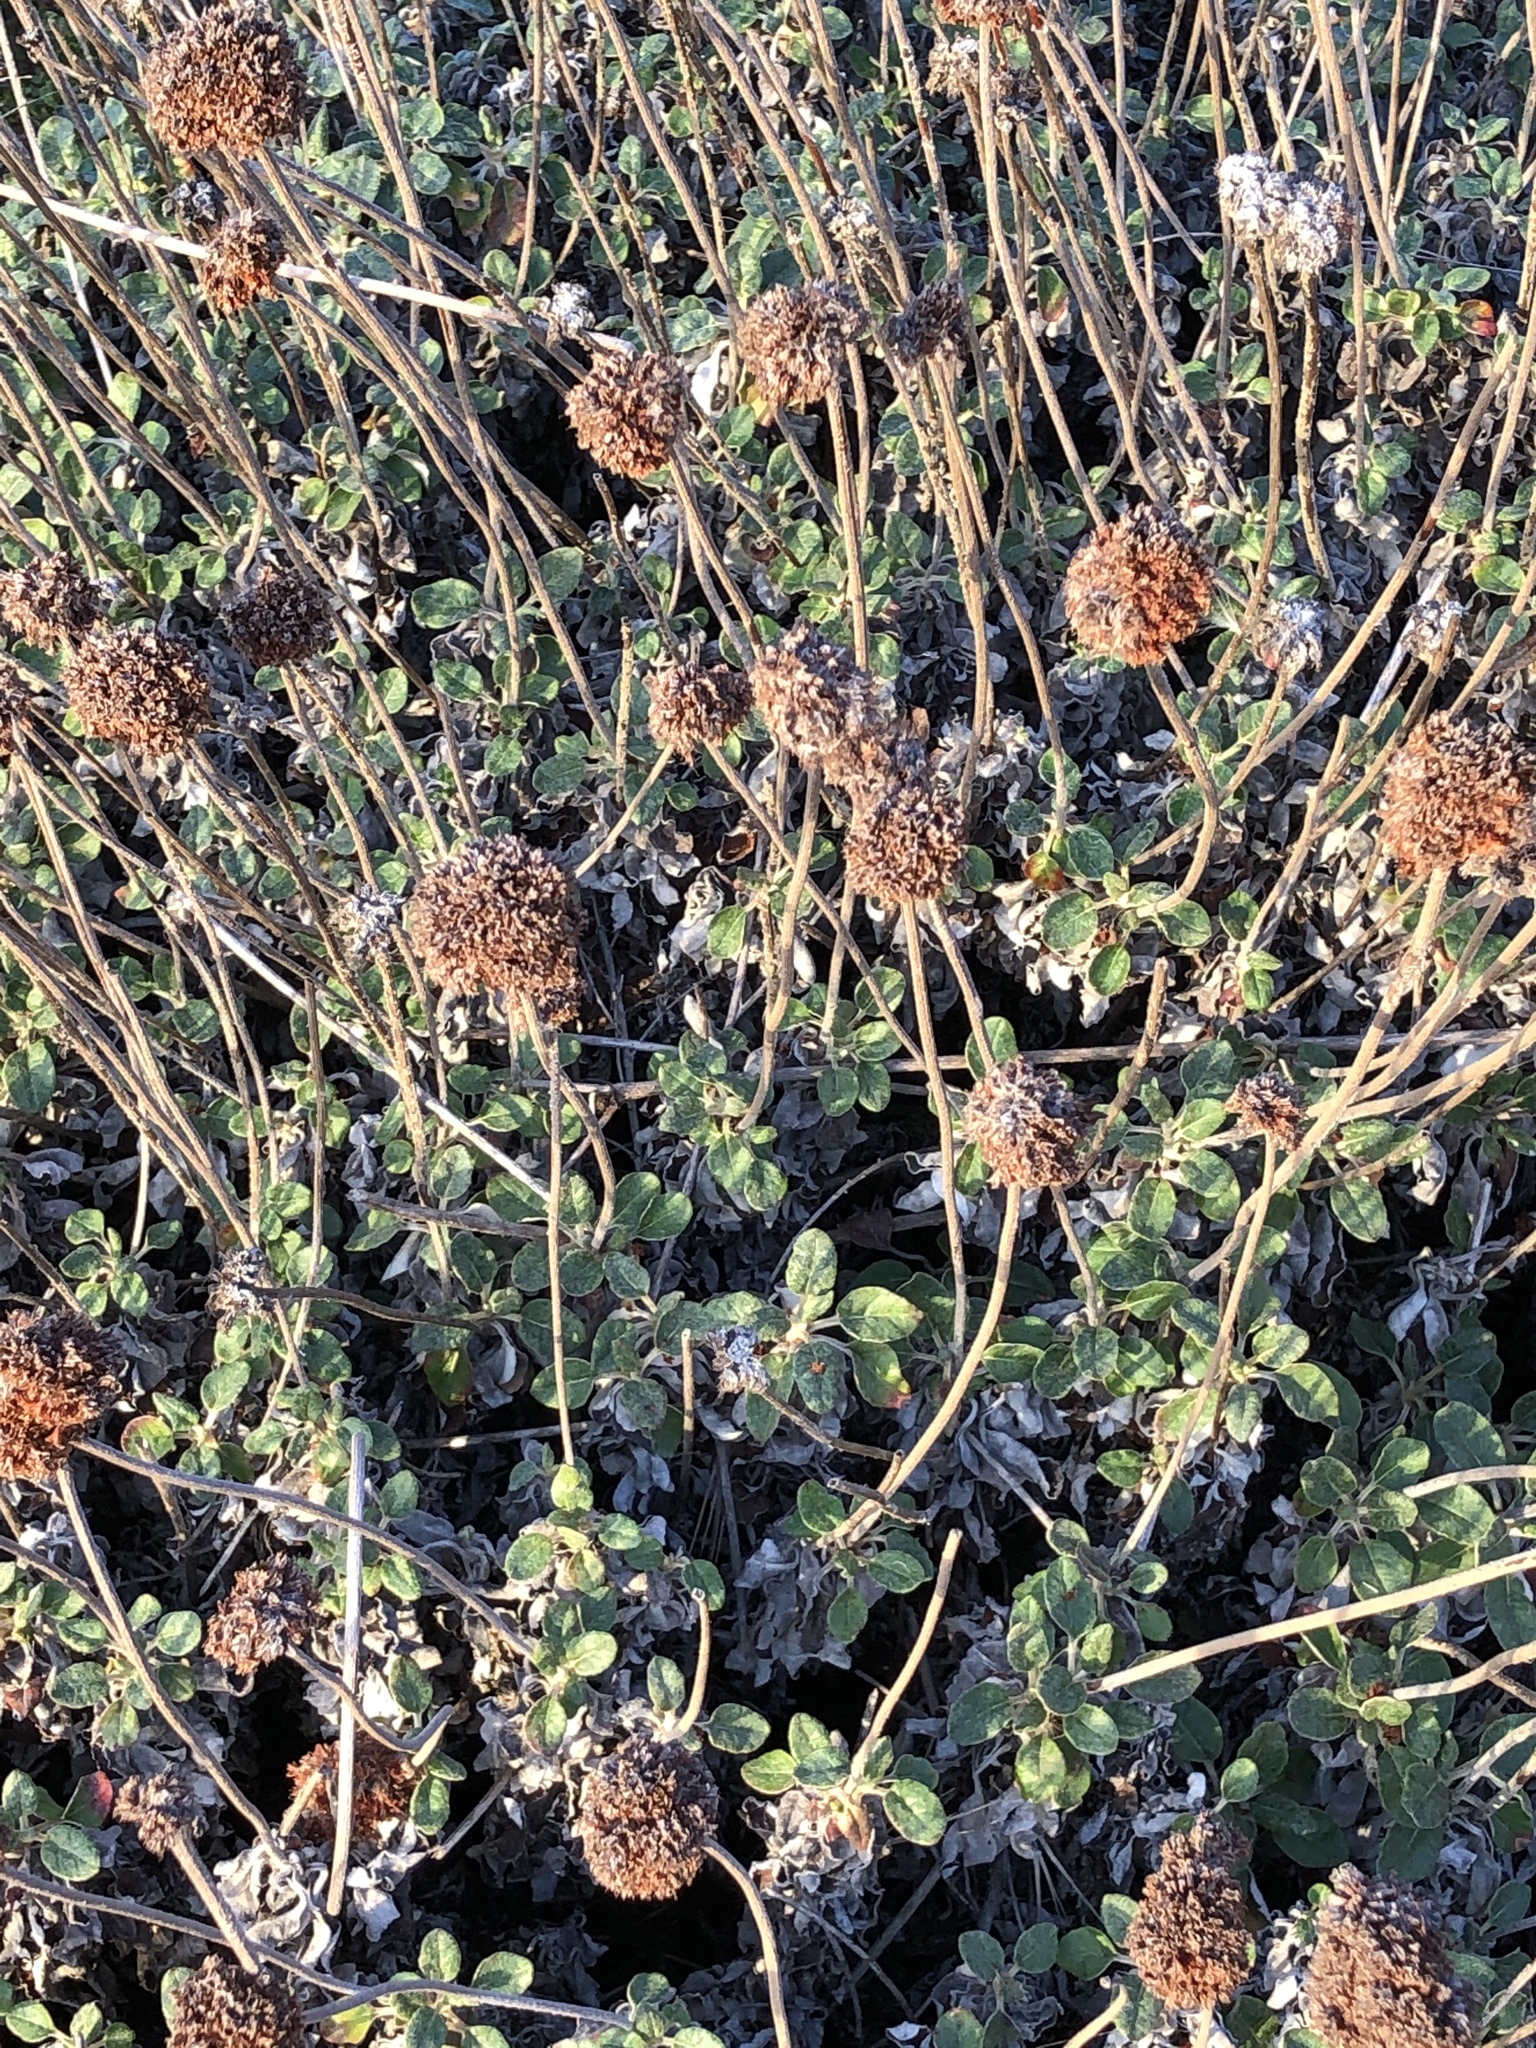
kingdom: Plantae
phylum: Tracheophyta
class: Magnoliopsida
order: Caryophyllales
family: Polygonaceae
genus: Eriogonum
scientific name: Eriogonum latifolium
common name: Seaside wild buckwheat
